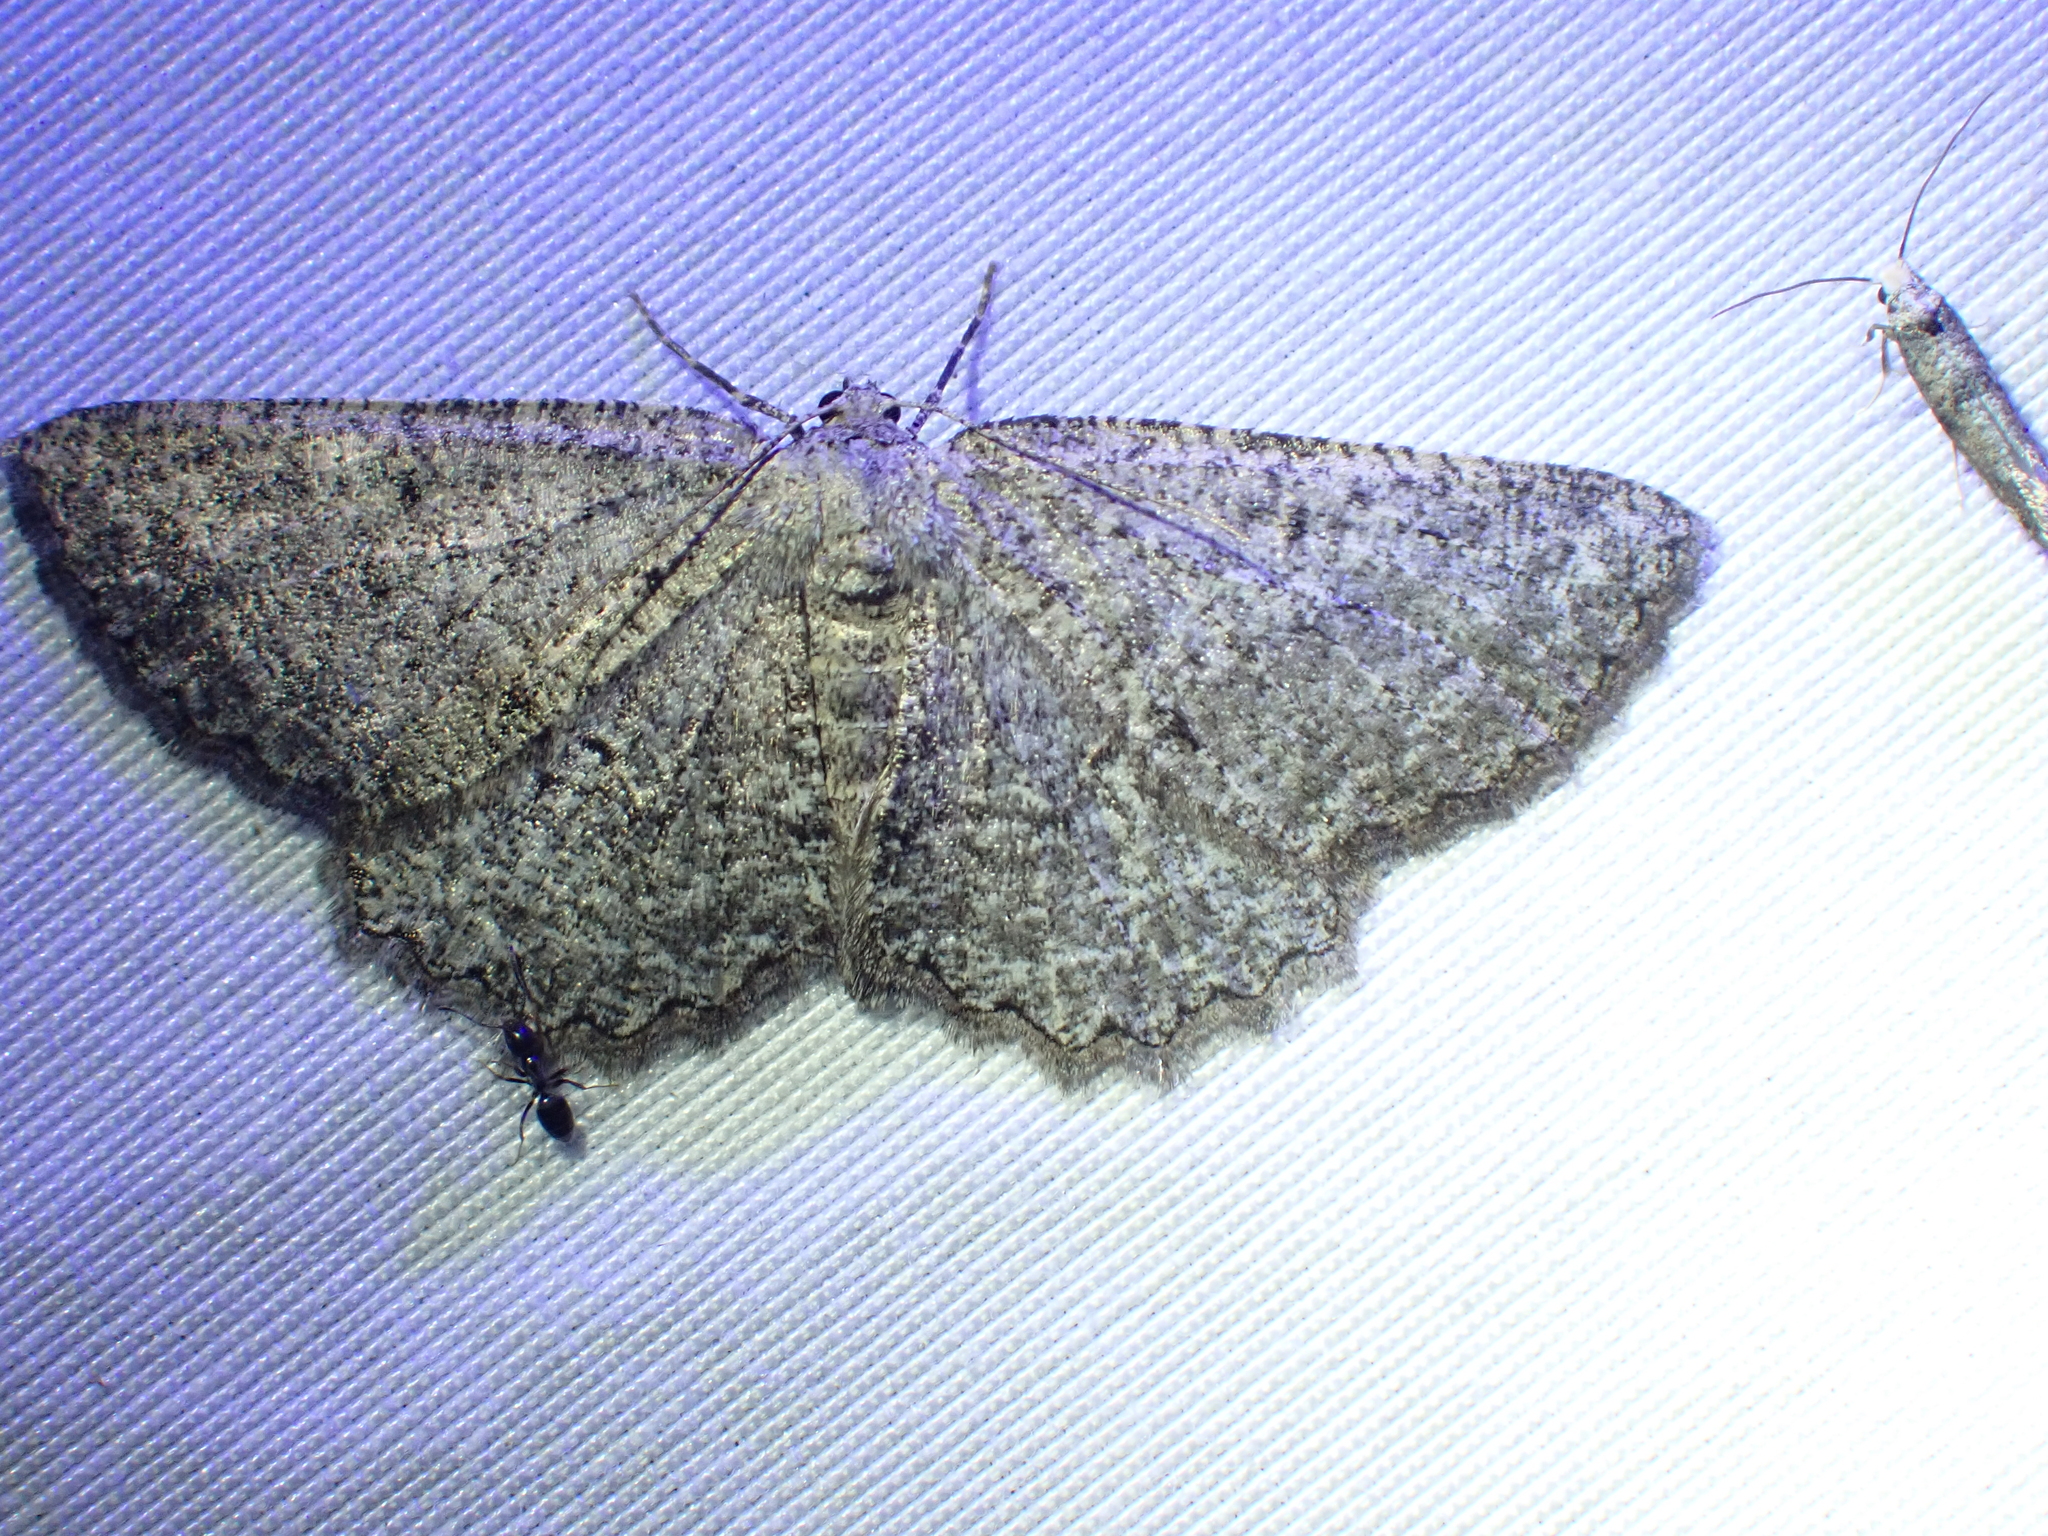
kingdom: Animalia
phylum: Arthropoda
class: Insecta
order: Lepidoptera
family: Geometridae
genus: Hesperumia
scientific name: Hesperumia latipennis
